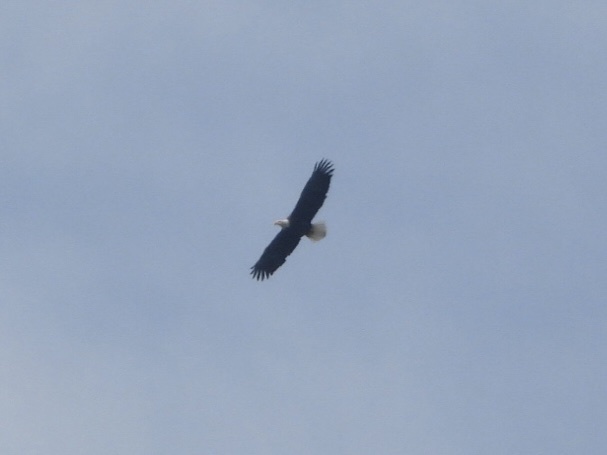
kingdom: Animalia
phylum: Chordata
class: Aves
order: Accipitriformes
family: Accipitridae
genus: Haliaeetus
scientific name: Haliaeetus leucocephalus
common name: Bald eagle
